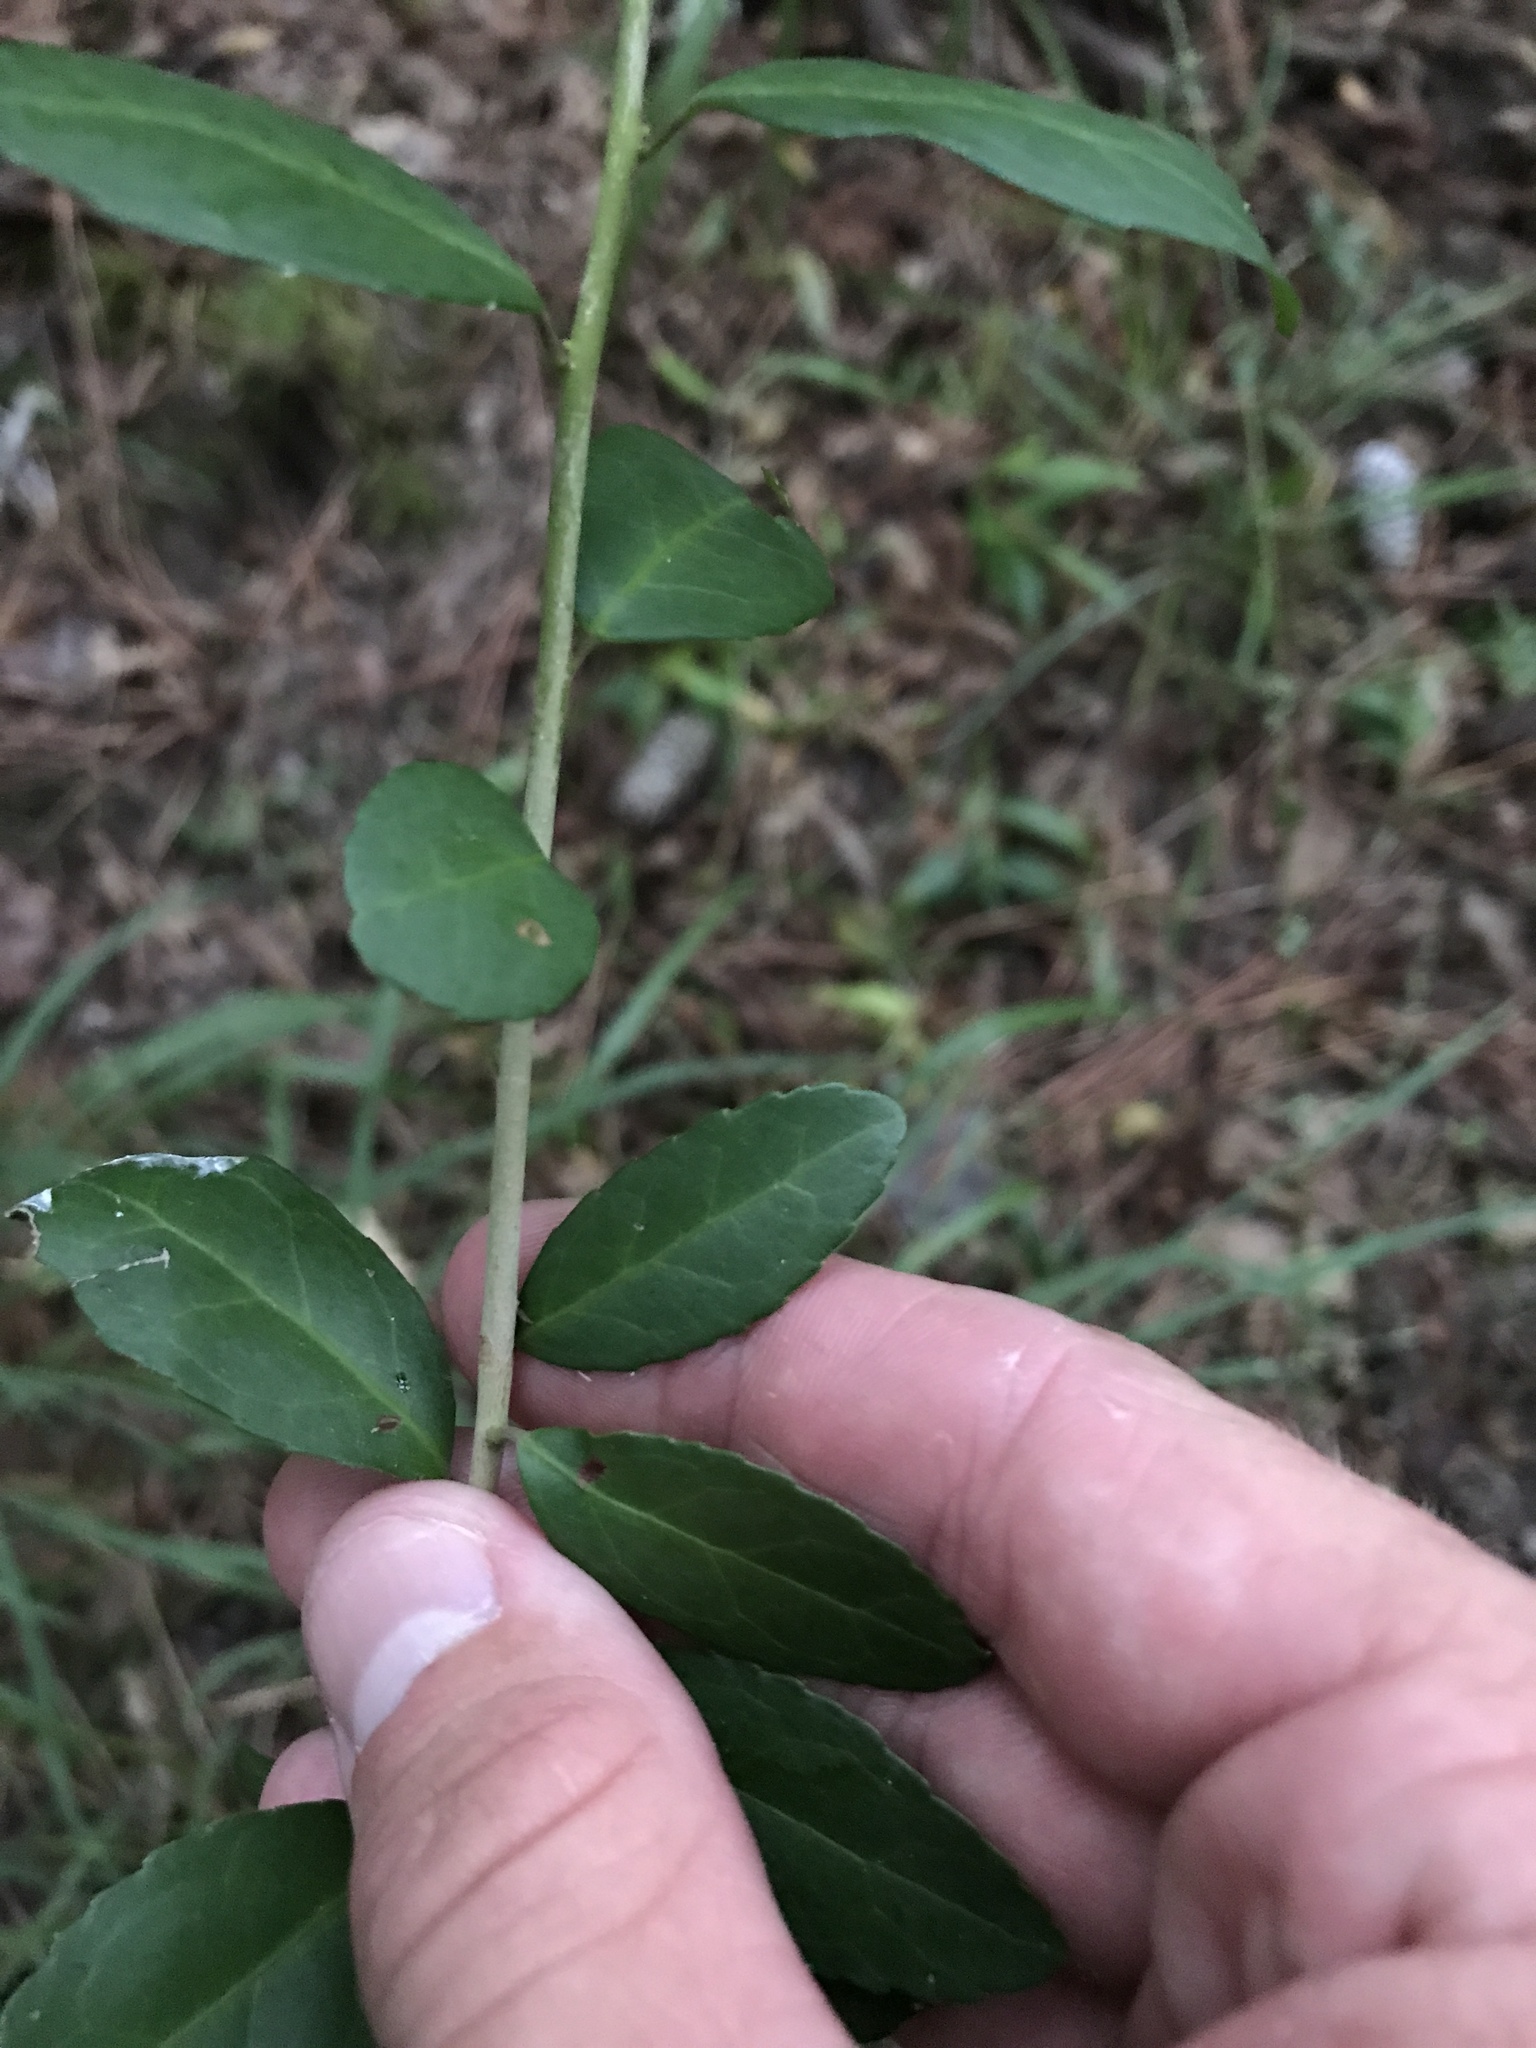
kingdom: Plantae
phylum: Tracheophyta
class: Magnoliopsida
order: Aquifoliales
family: Aquifoliaceae
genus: Ilex
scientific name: Ilex vomitoria
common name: Yaupon holly
